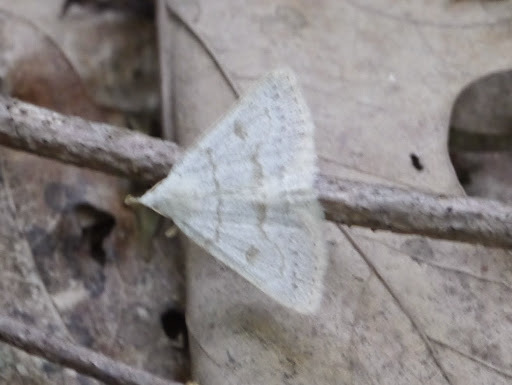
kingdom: Animalia
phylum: Arthropoda
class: Insecta
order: Lepidoptera
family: Erebidae
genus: Macrochilo
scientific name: Macrochilo morbidalis
